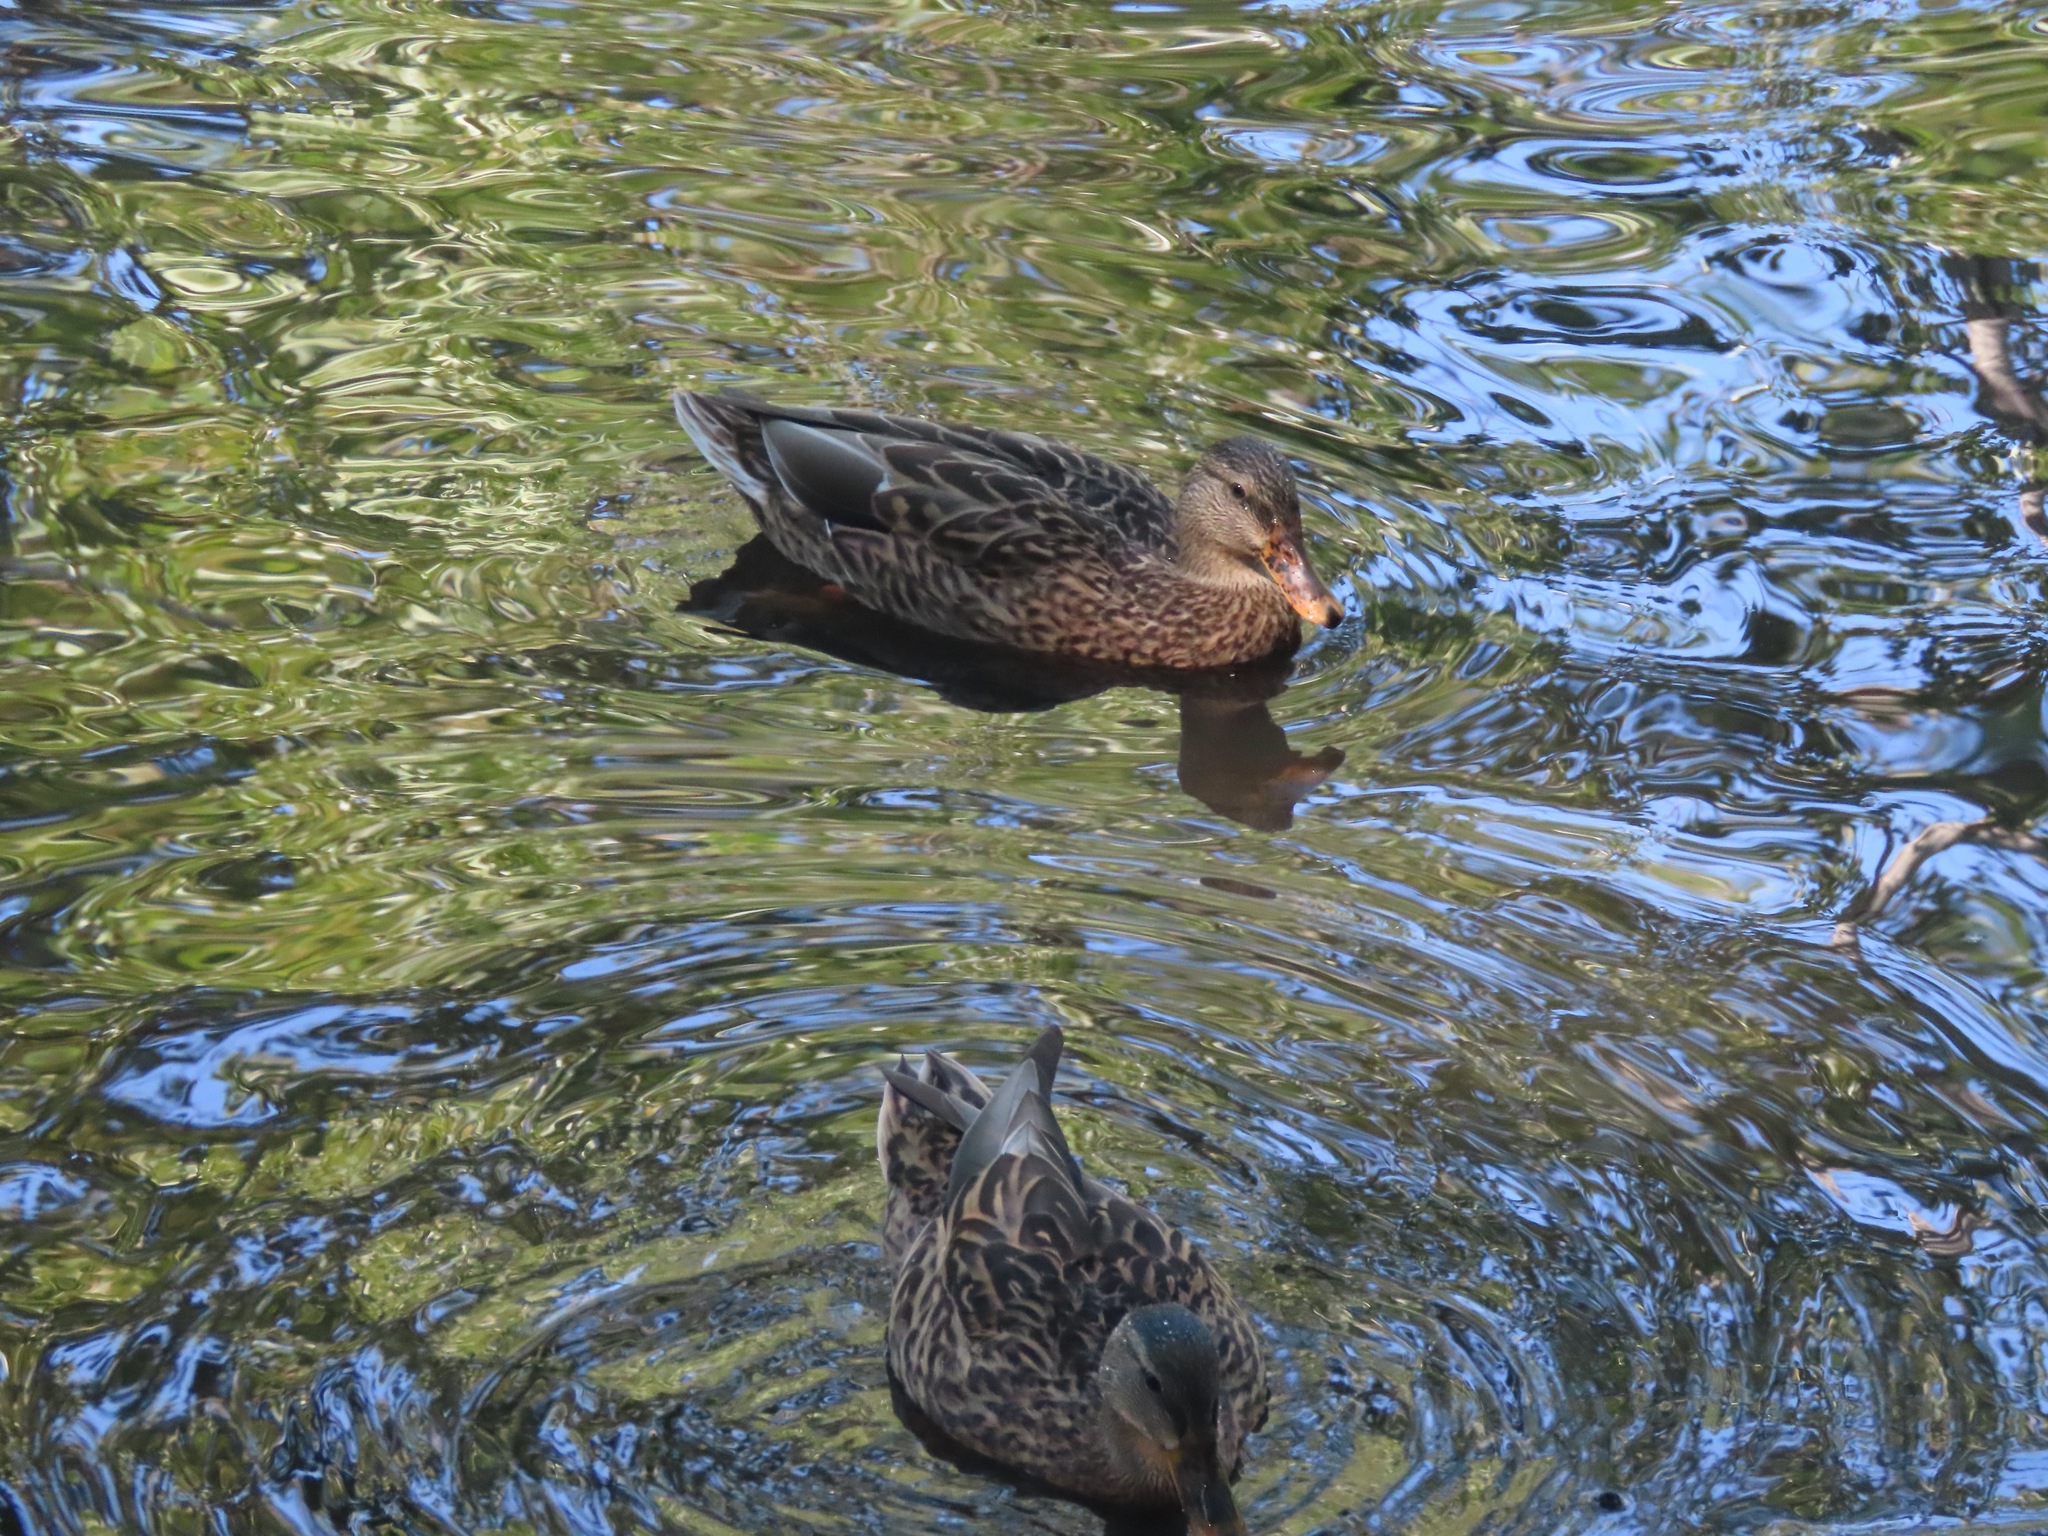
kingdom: Animalia
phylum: Chordata
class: Aves
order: Anseriformes
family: Anatidae
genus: Anas
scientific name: Anas platyrhynchos
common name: Mallard
